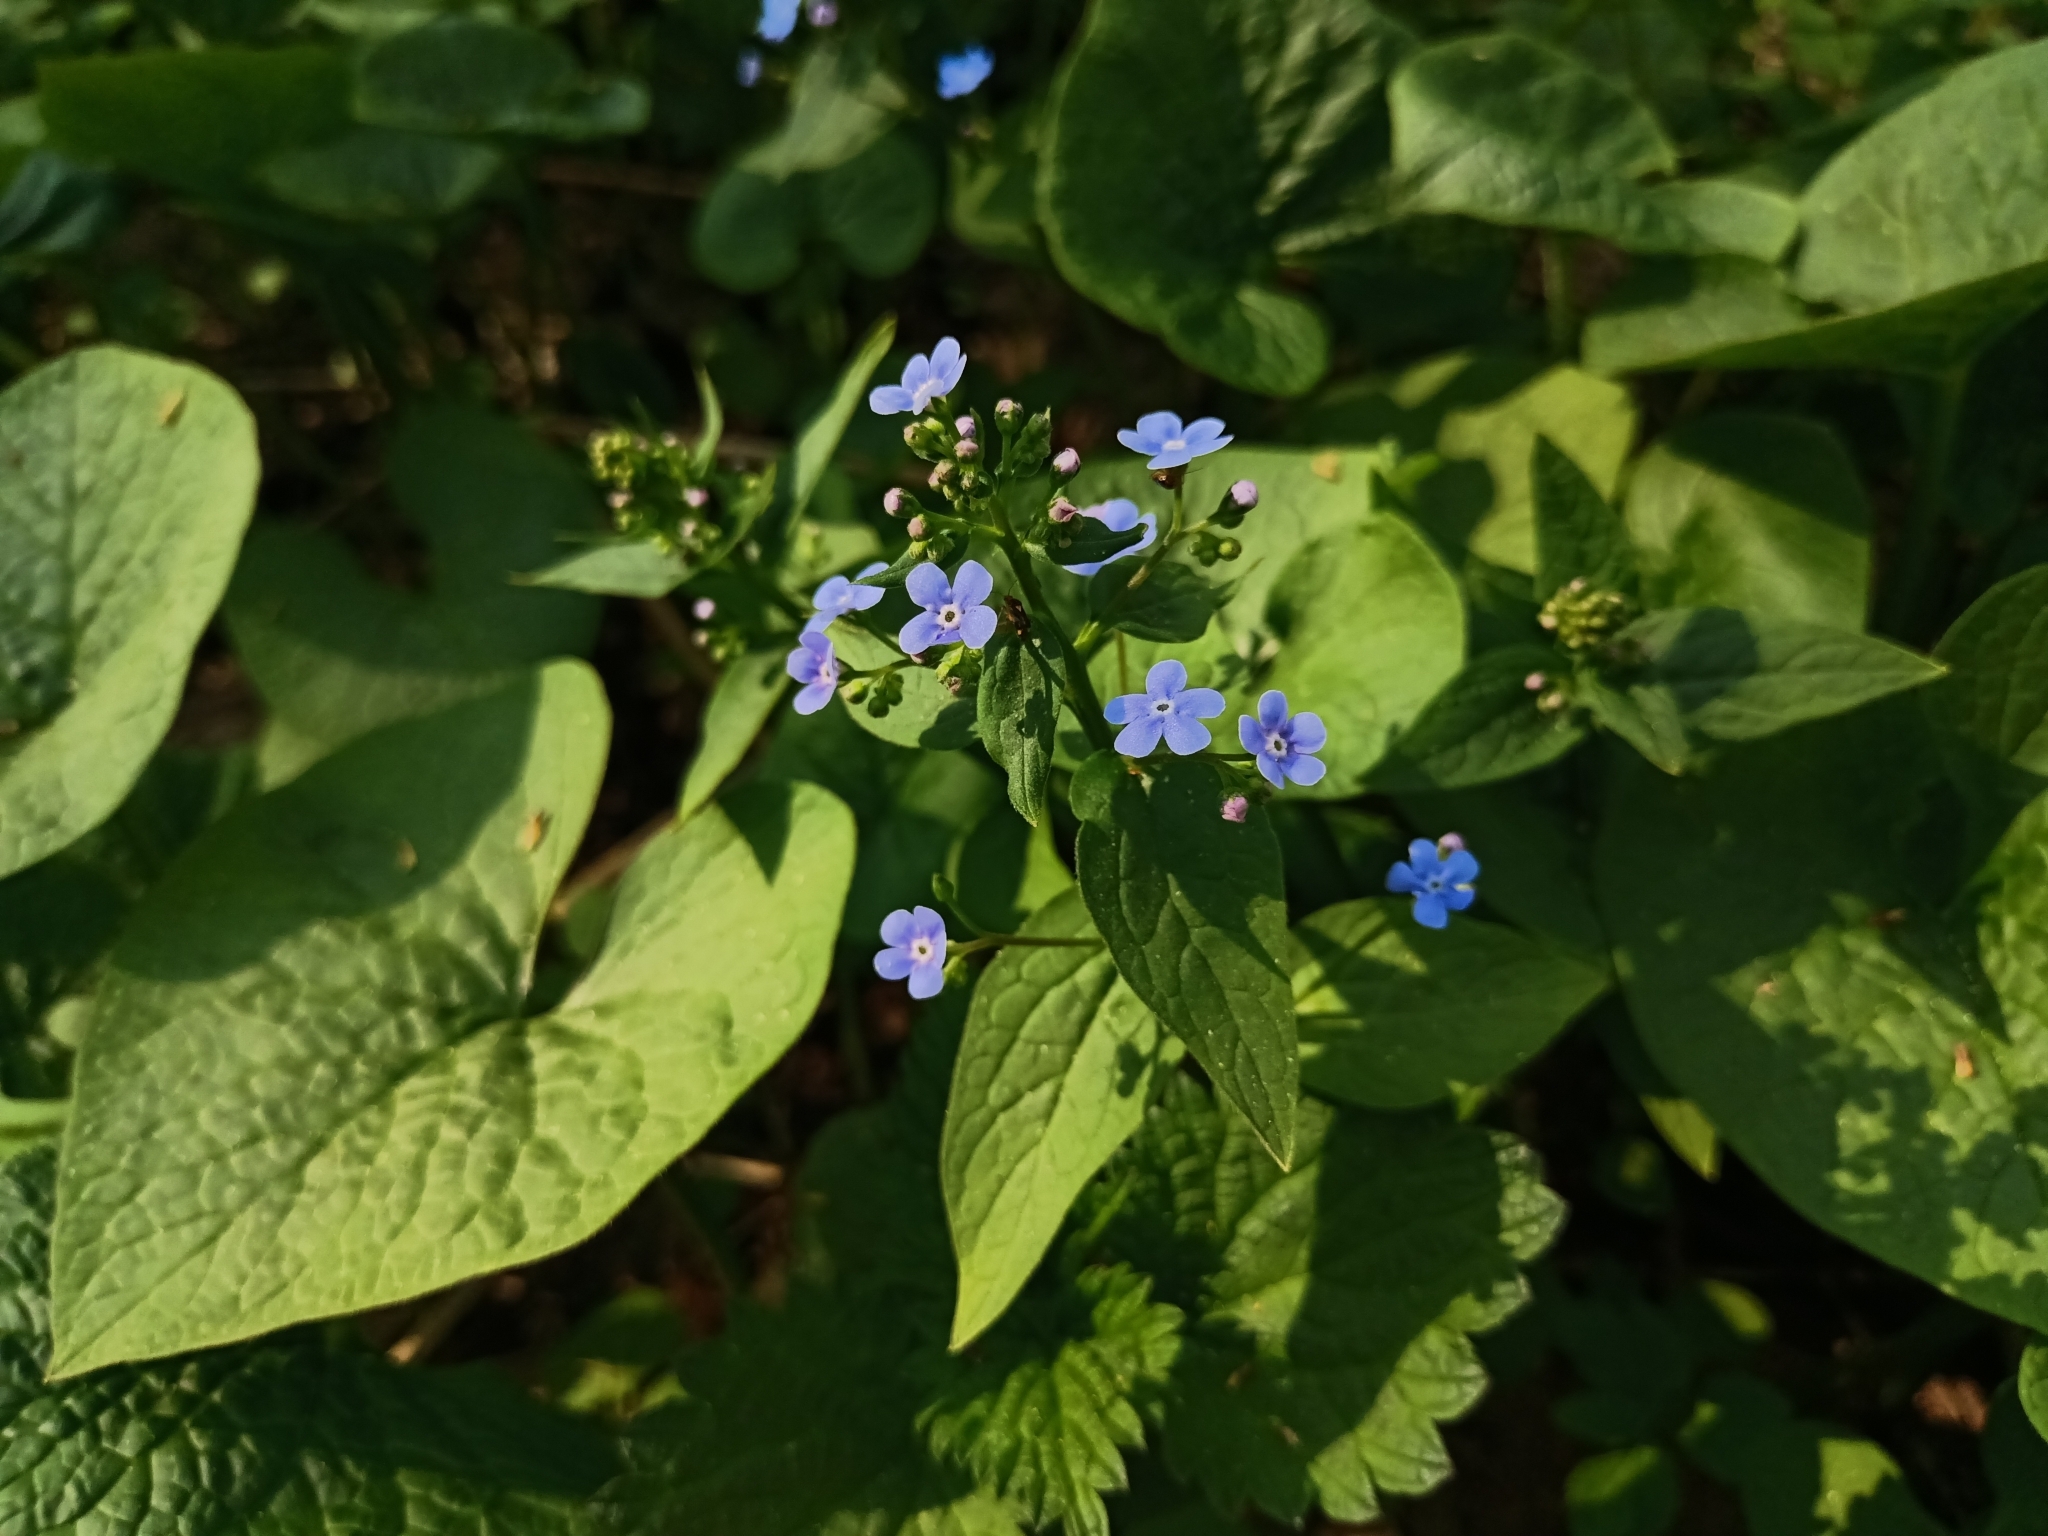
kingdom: Plantae
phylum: Tracheophyta
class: Magnoliopsida
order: Boraginales
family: Boraginaceae
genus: Brunnera
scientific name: Brunnera sibirica
